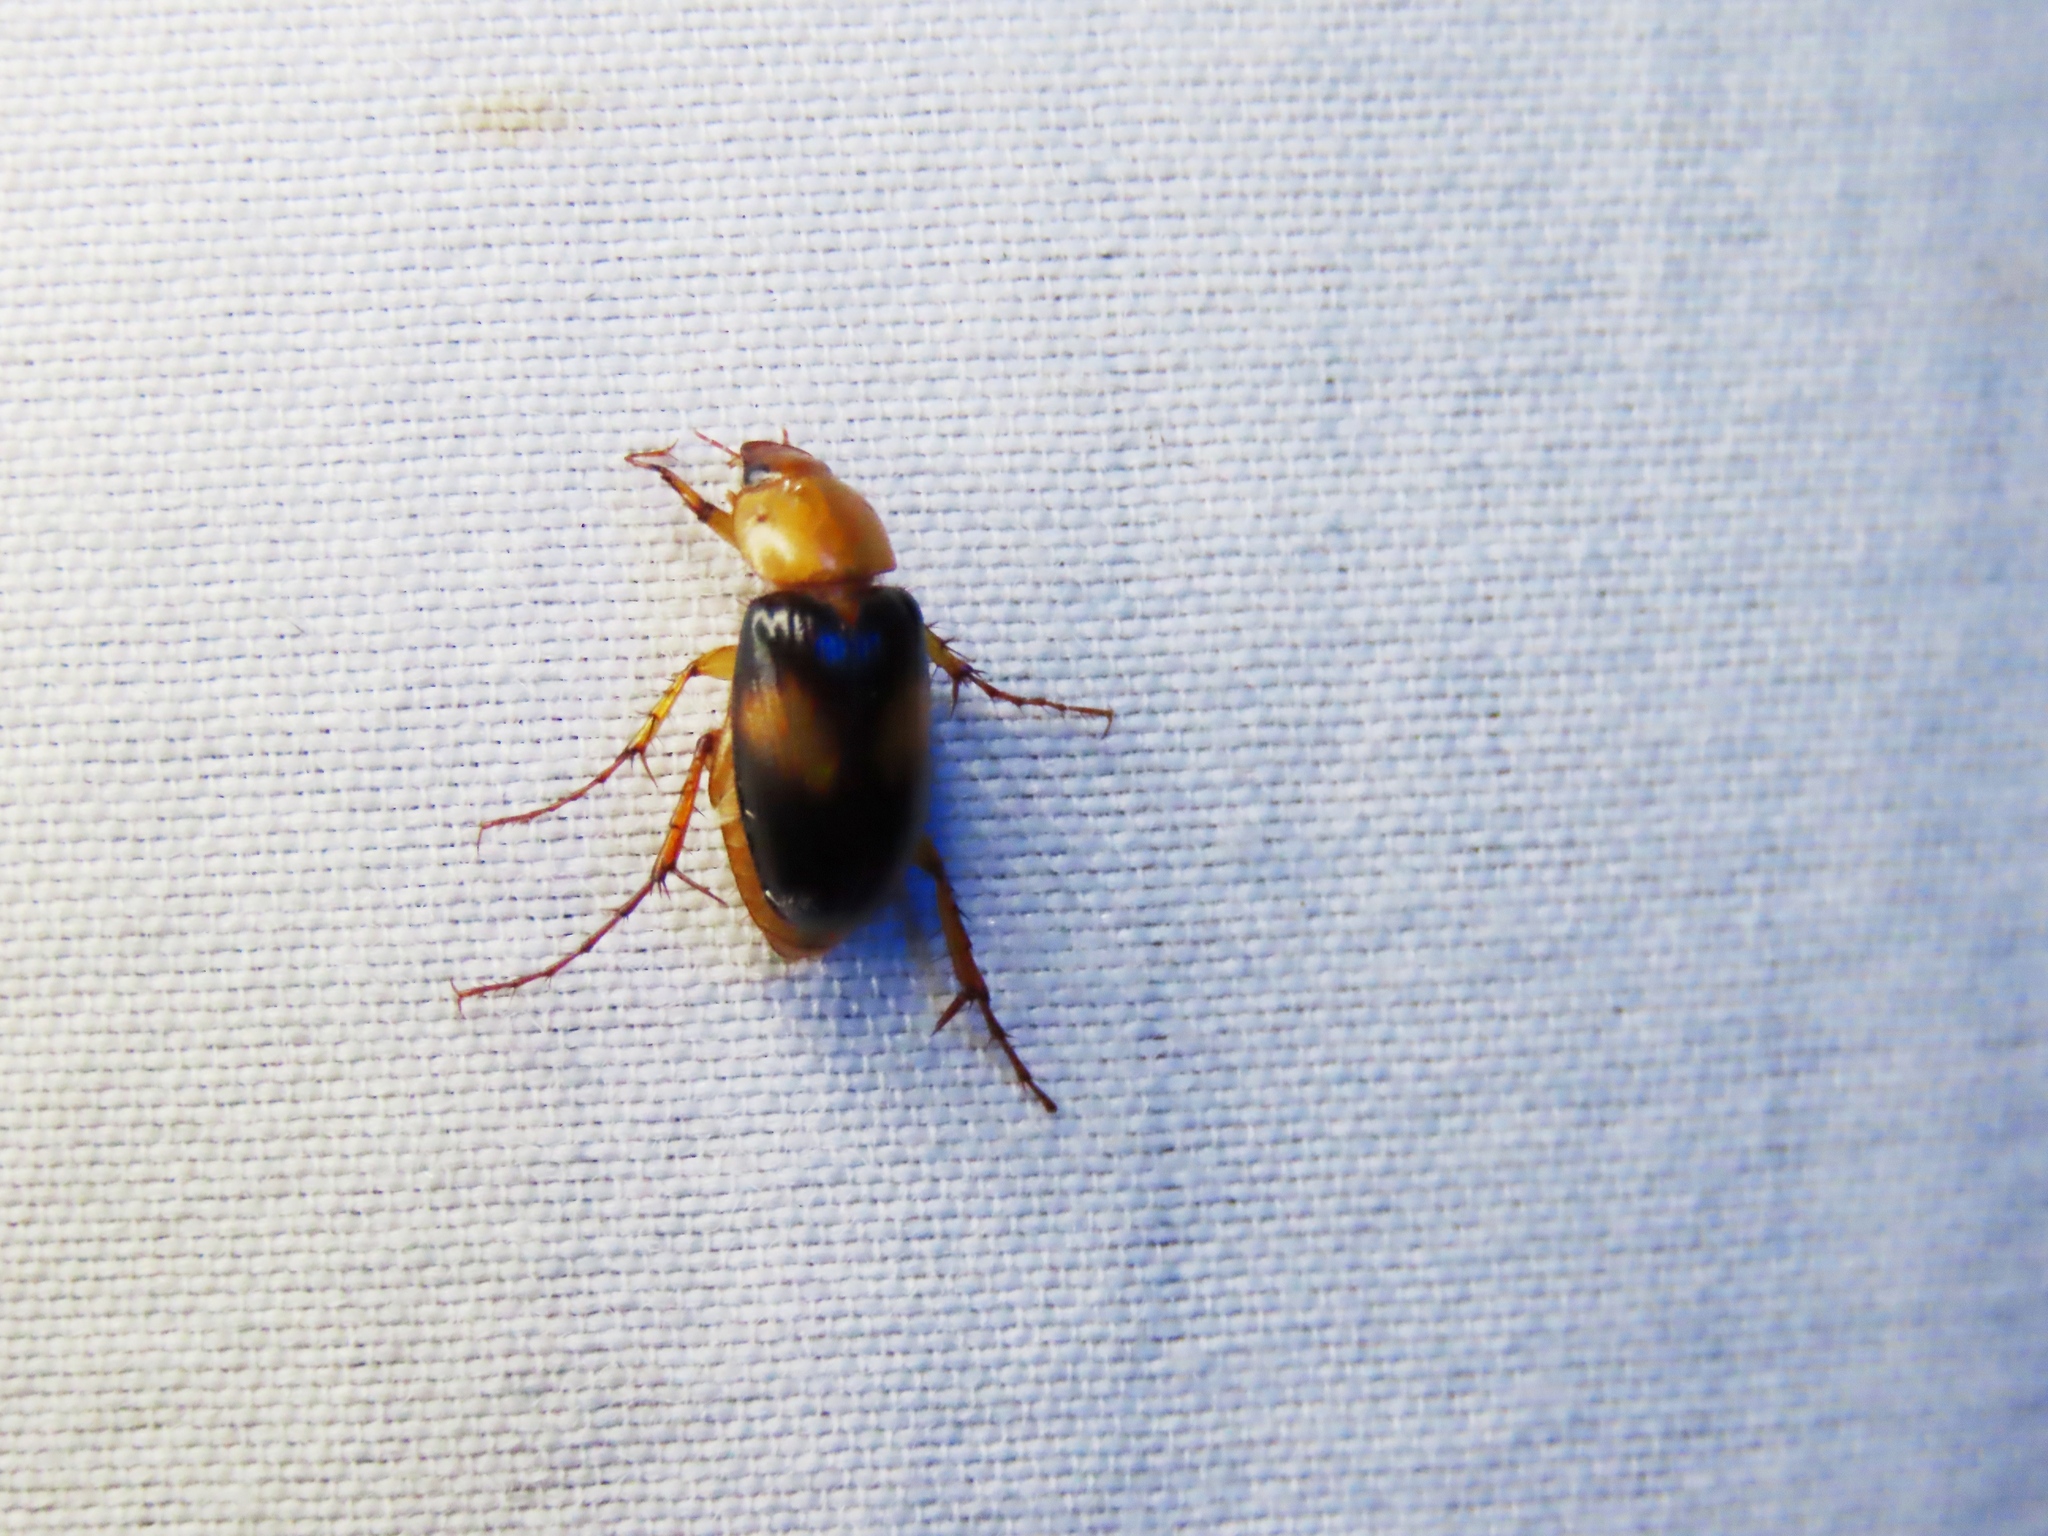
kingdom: Animalia
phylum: Arthropoda
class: Insecta
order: Coleoptera
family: Scarabaeidae
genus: Phyllotocus
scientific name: Phyllotocus bimaculatus
